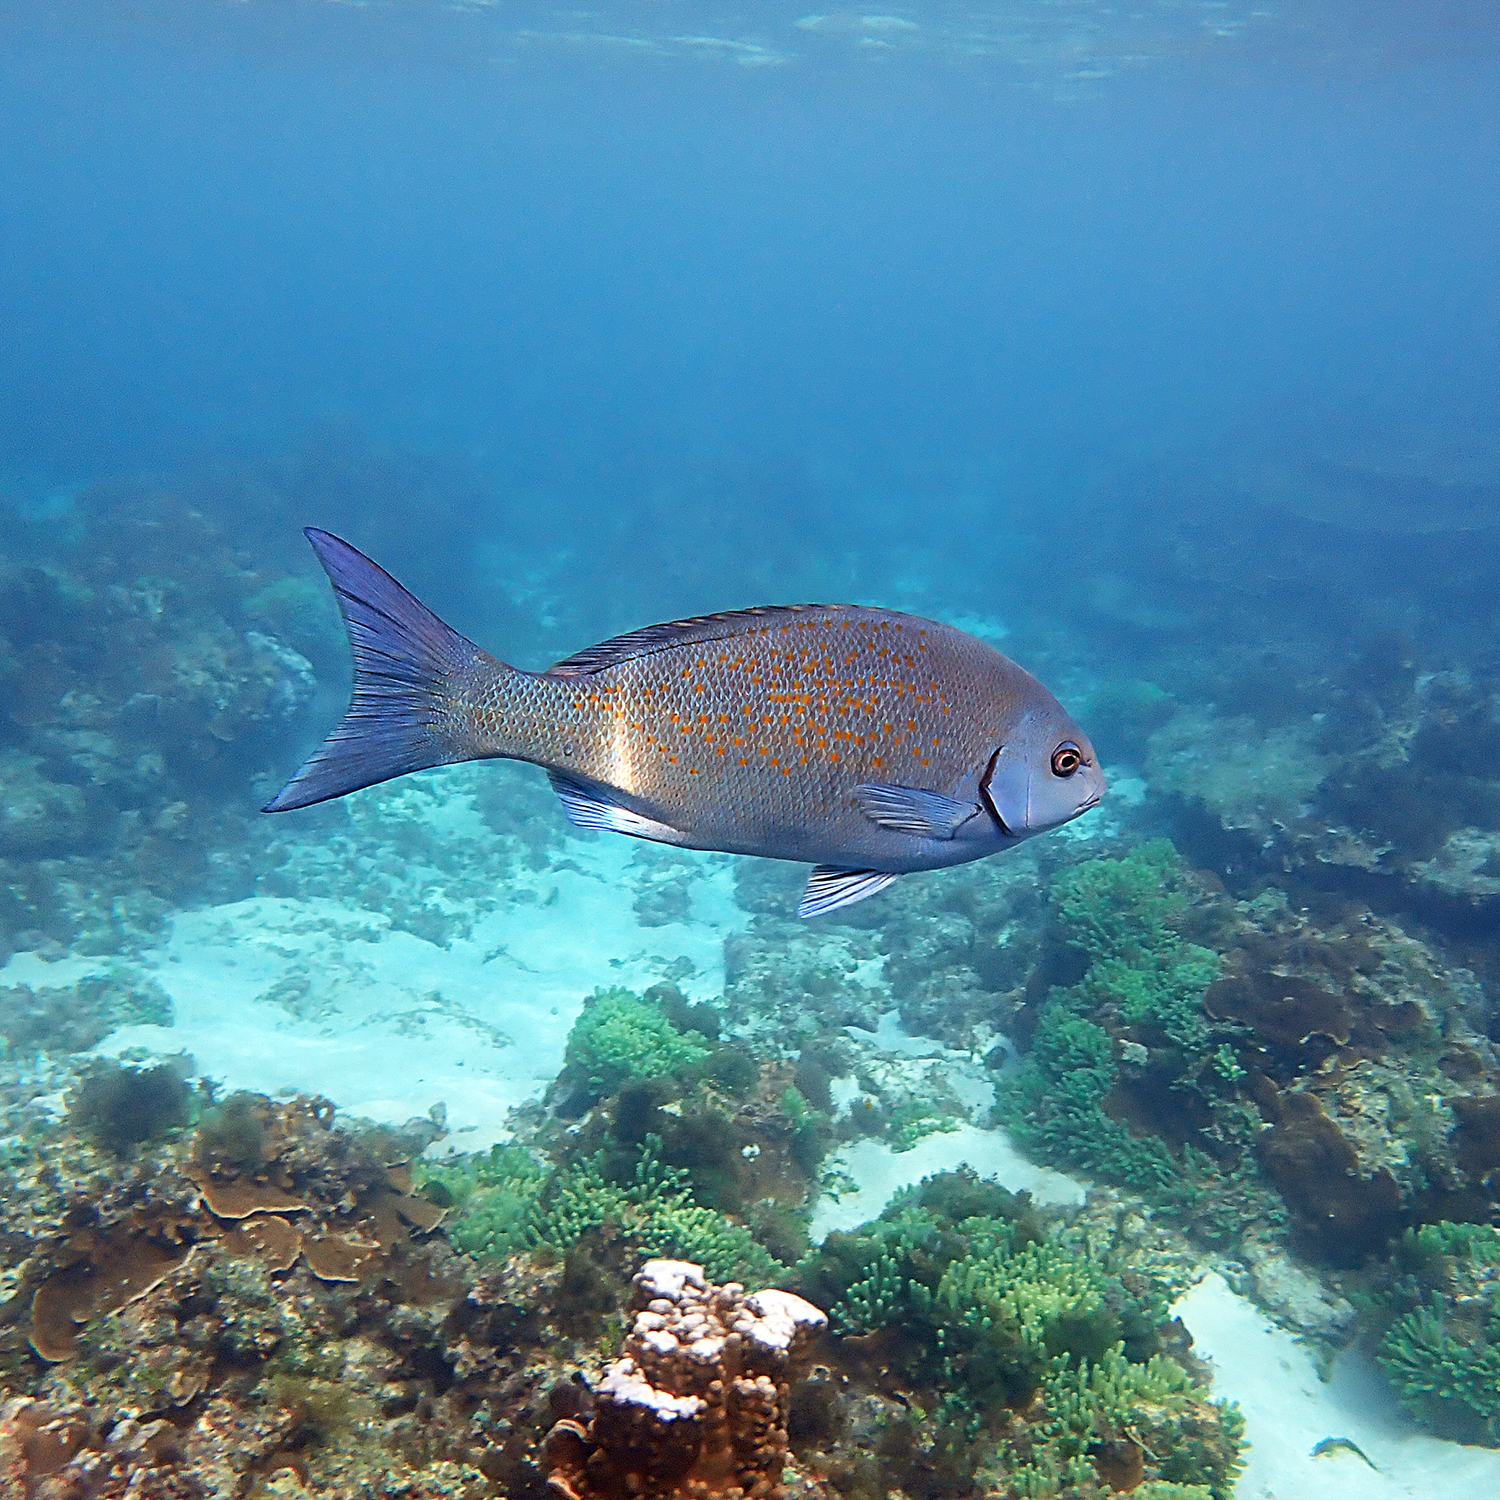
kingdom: Animalia
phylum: Chordata
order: Perciformes
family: Kyphosidae
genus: Girella
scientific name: Girella cyanea
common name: Bluefish
